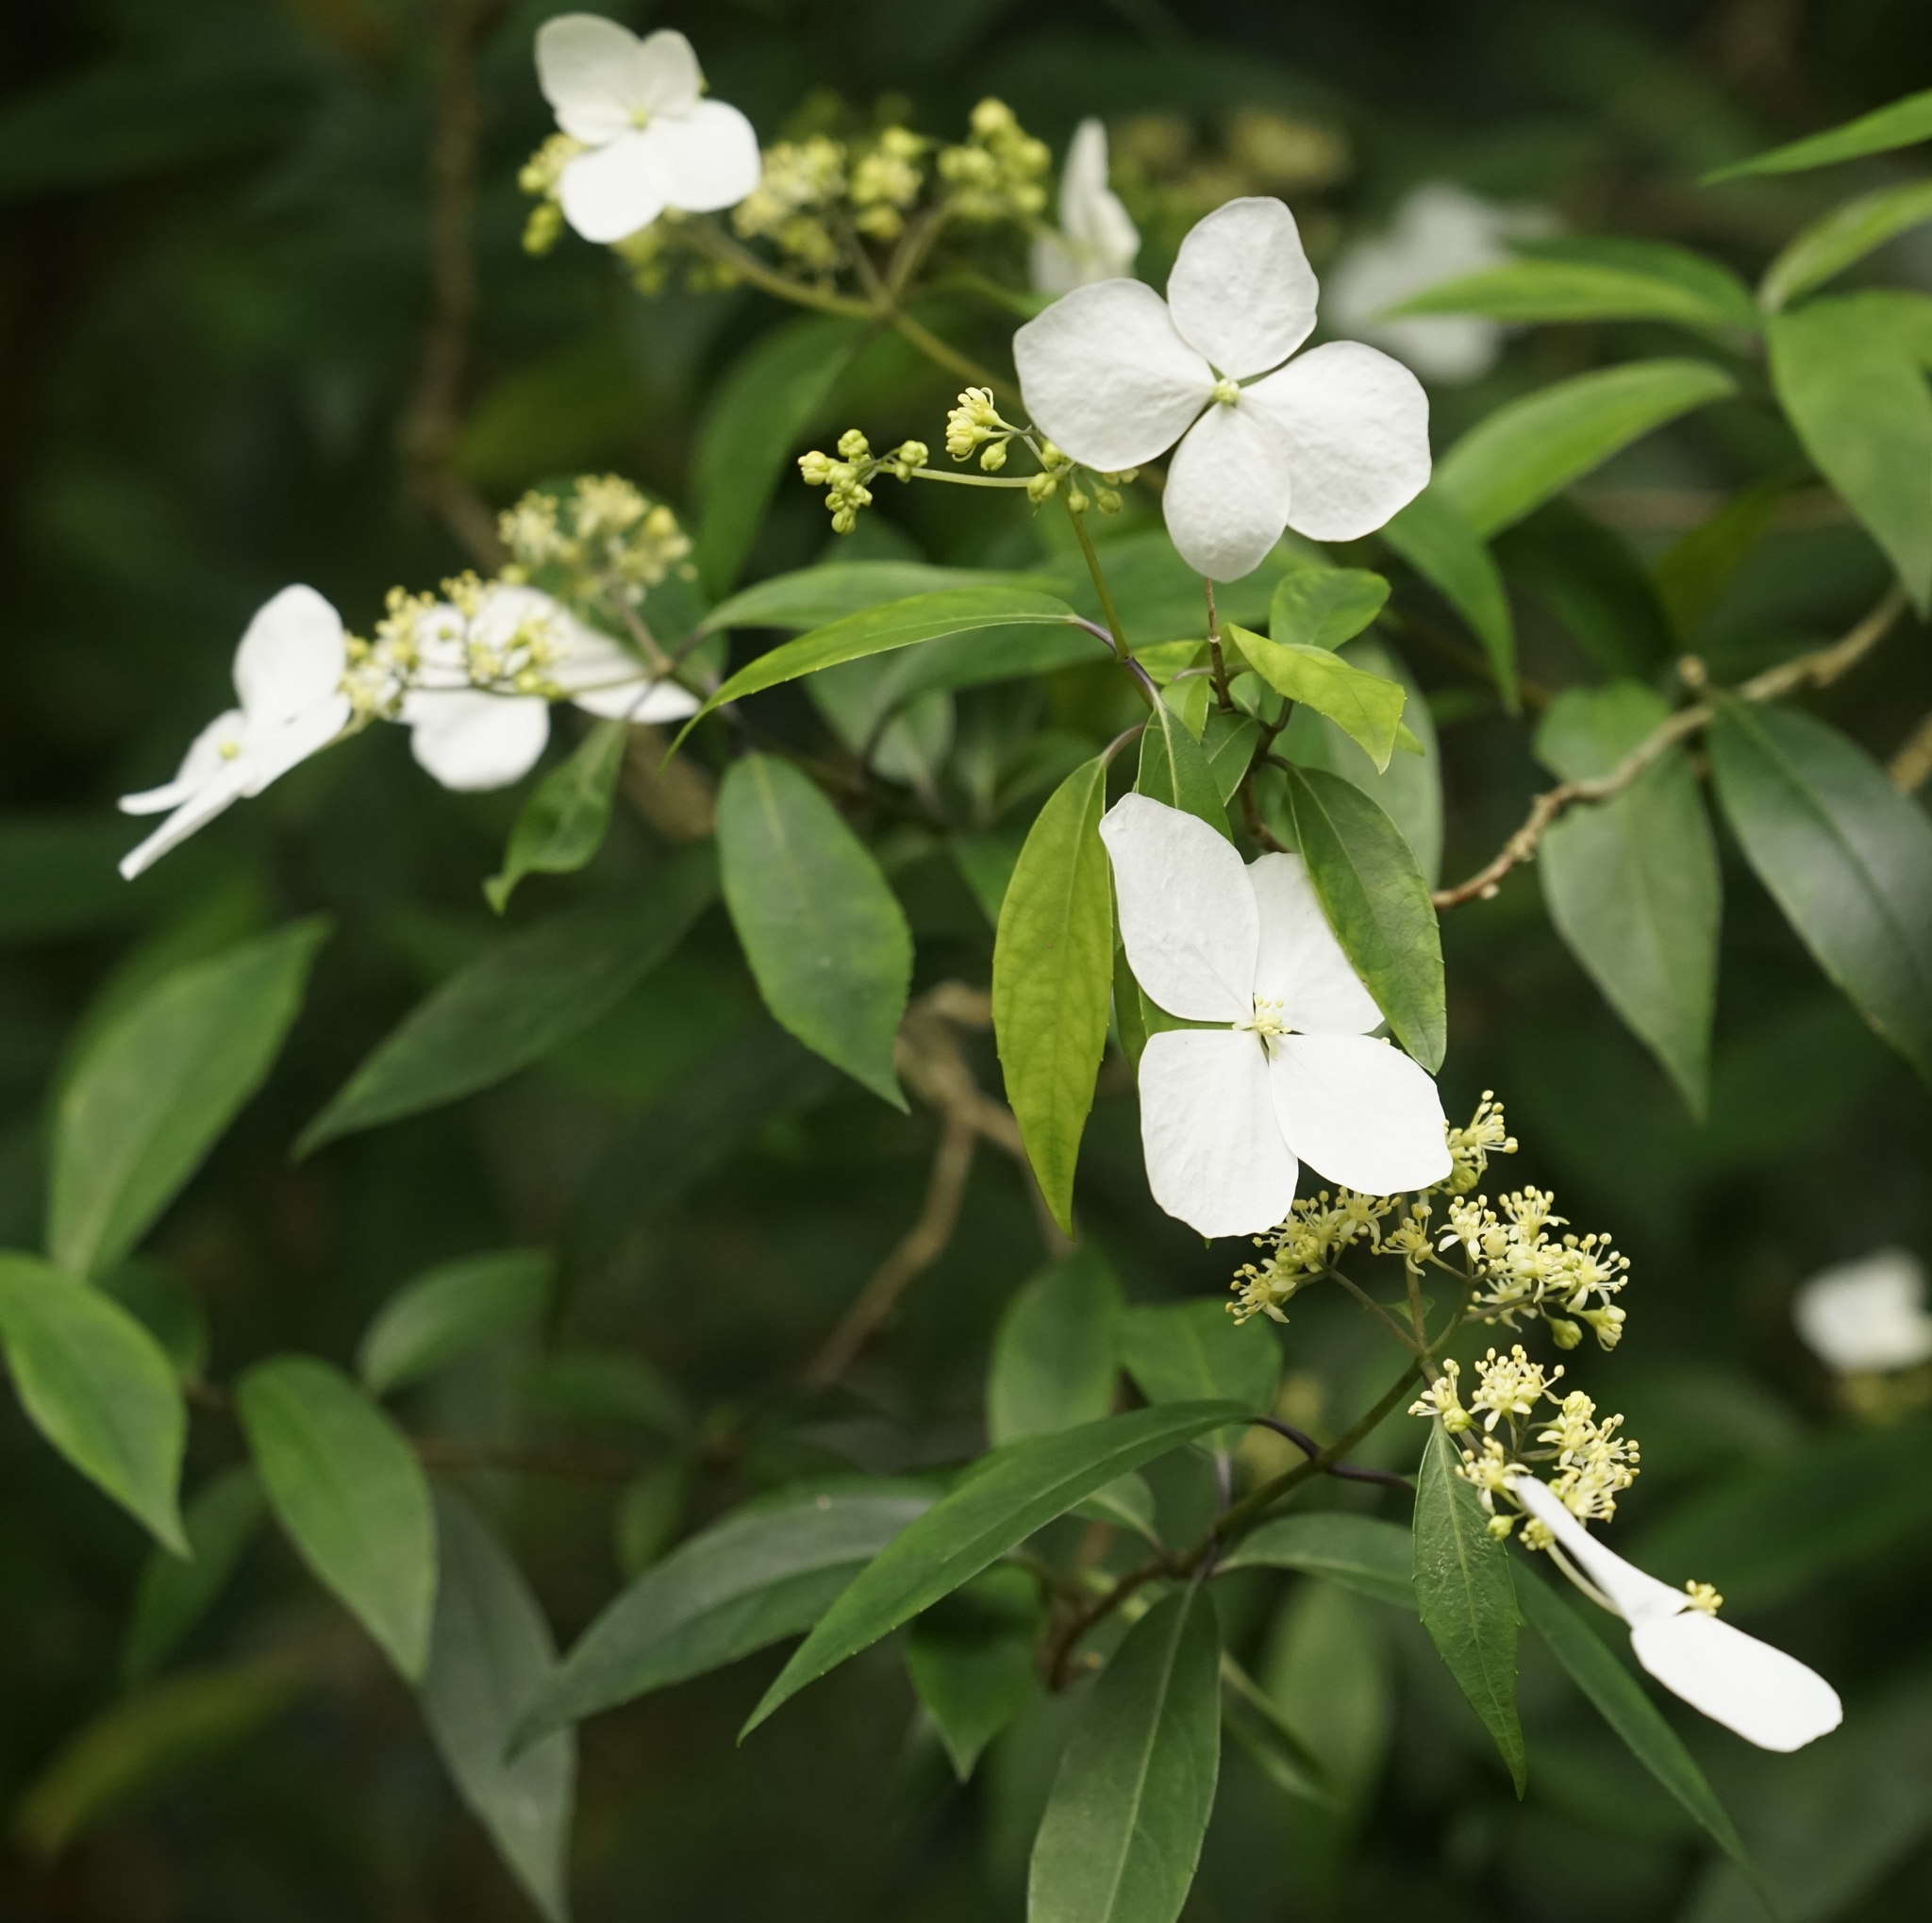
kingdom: Plantae
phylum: Tracheophyta
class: Magnoliopsida
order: Cornales
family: Hydrangeaceae
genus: Hydrangea
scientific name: Hydrangea chinensis
